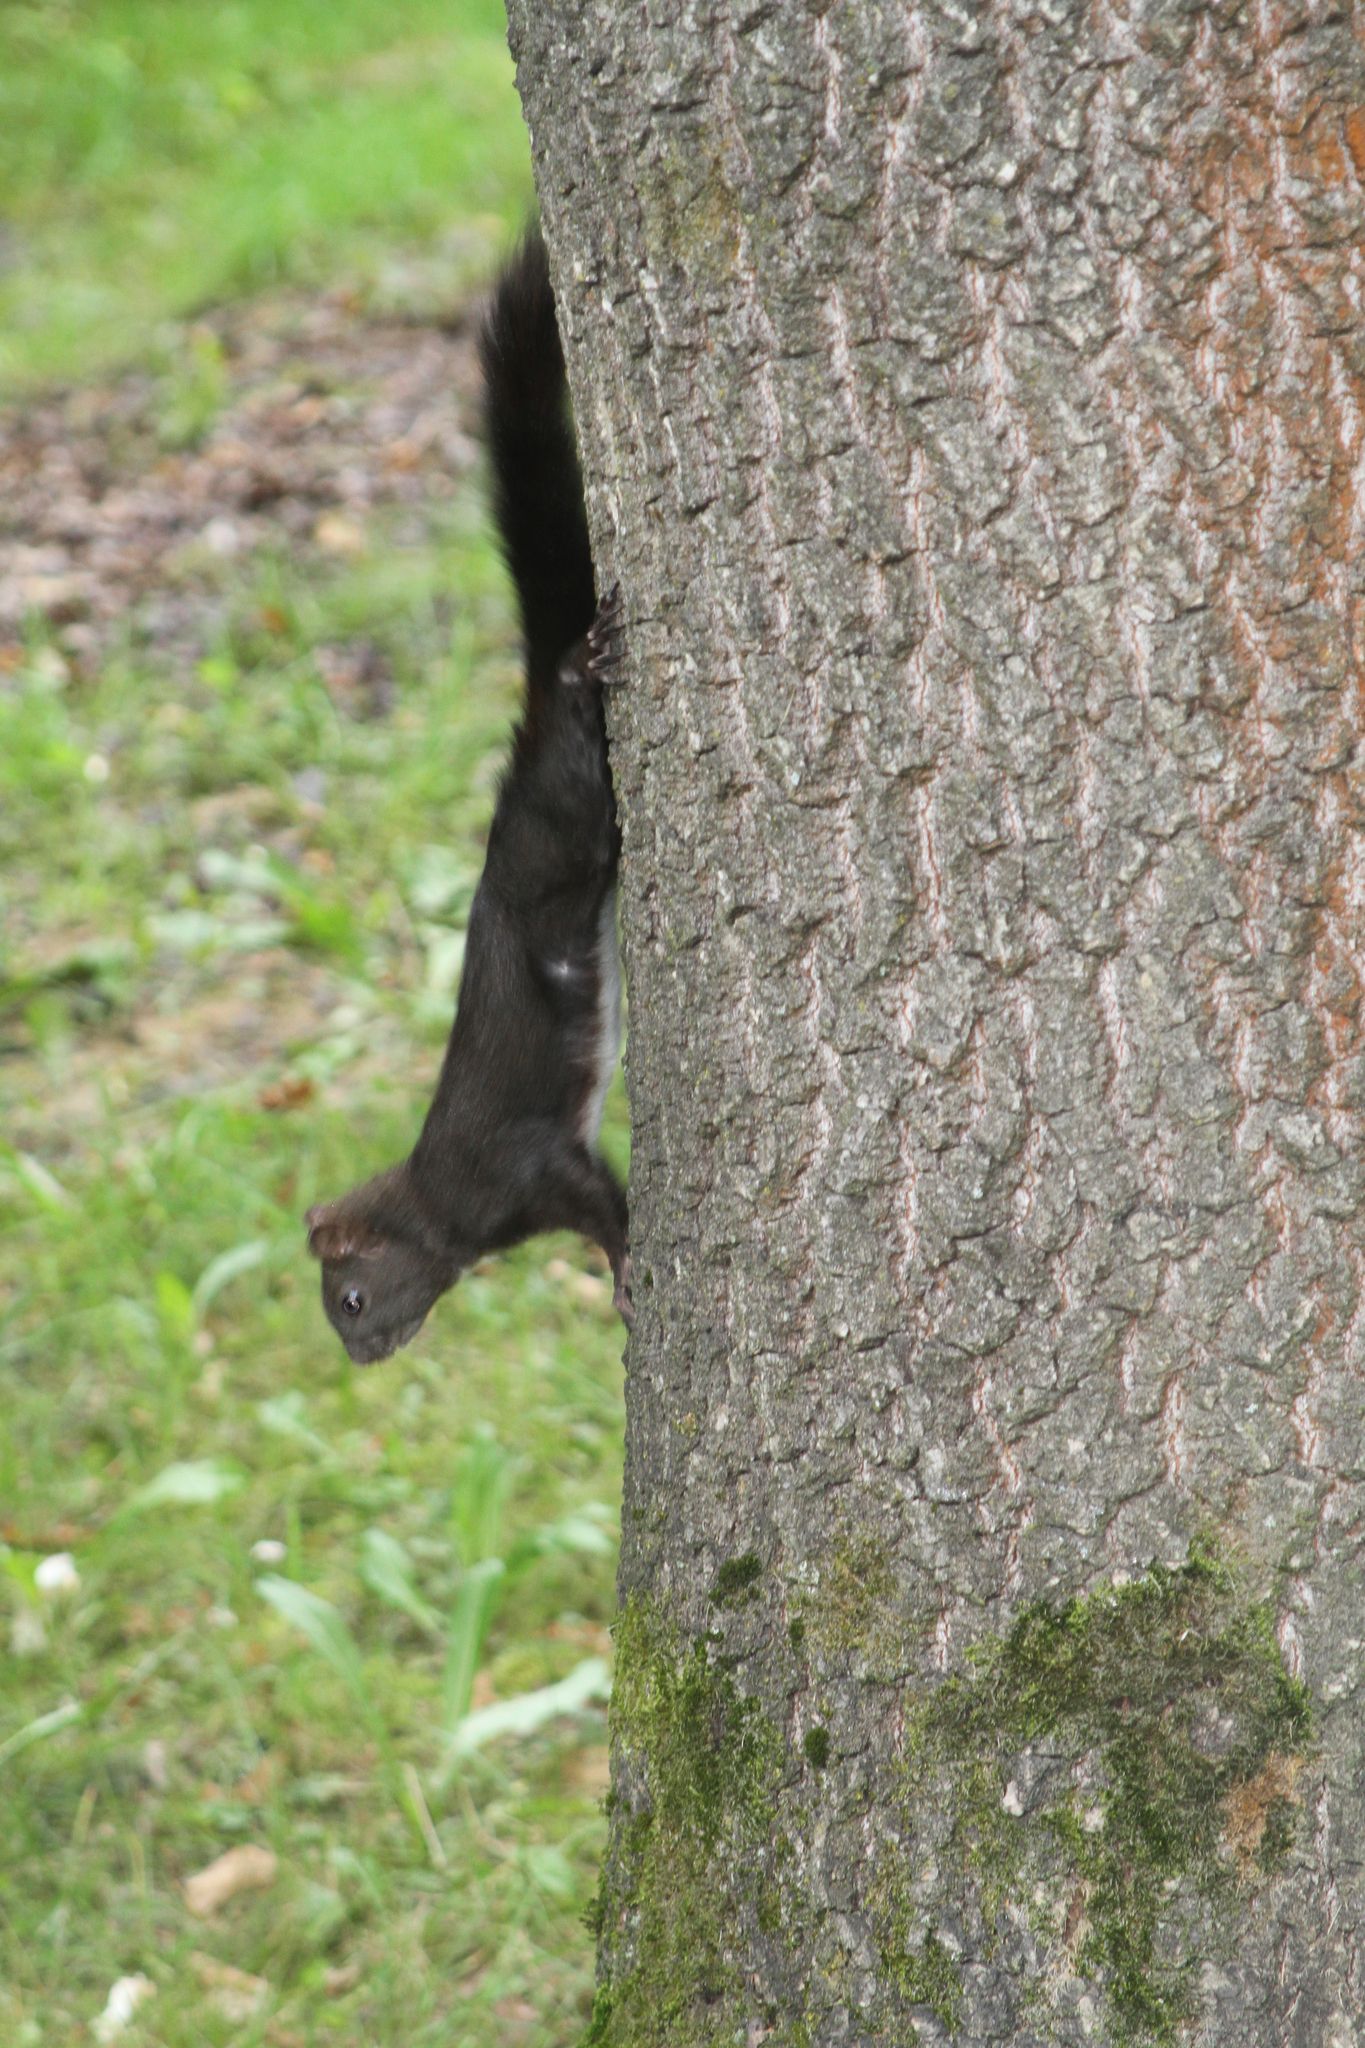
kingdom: Animalia
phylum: Chordata
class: Mammalia
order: Rodentia
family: Sciuridae
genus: Sciurus
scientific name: Sciurus vulgaris
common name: Eurasian red squirrel
